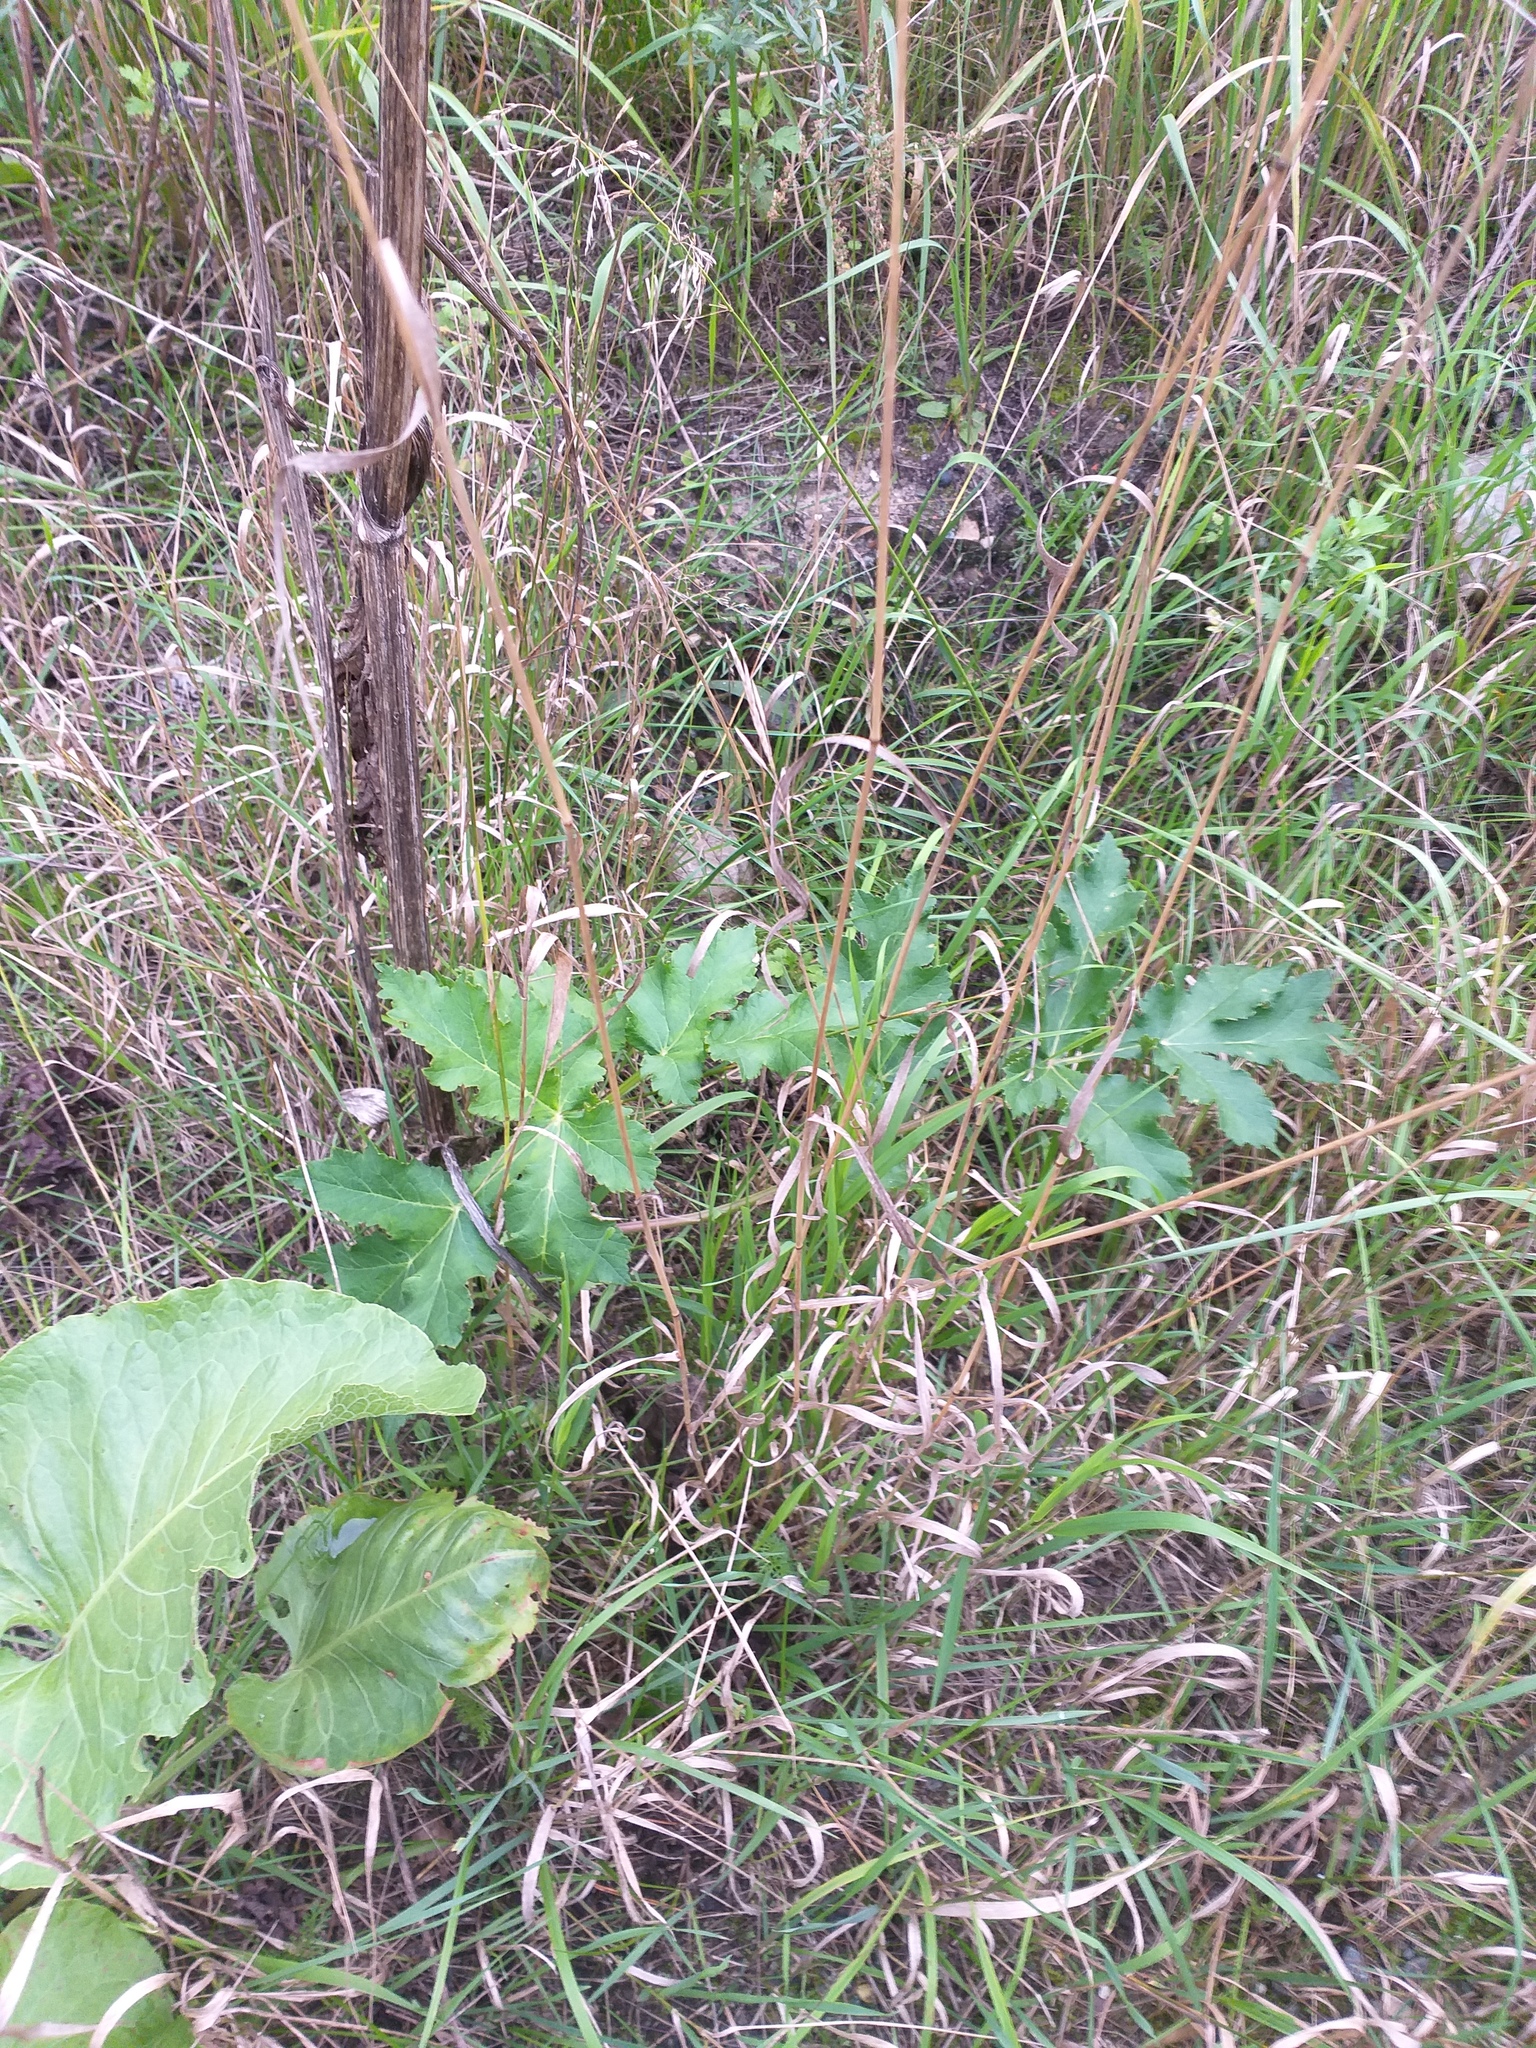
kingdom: Plantae
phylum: Tracheophyta
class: Magnoliopsida
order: Apiales
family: Apiaceae
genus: Heracleum
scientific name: Heracleum sphondylium
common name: Hogweed
